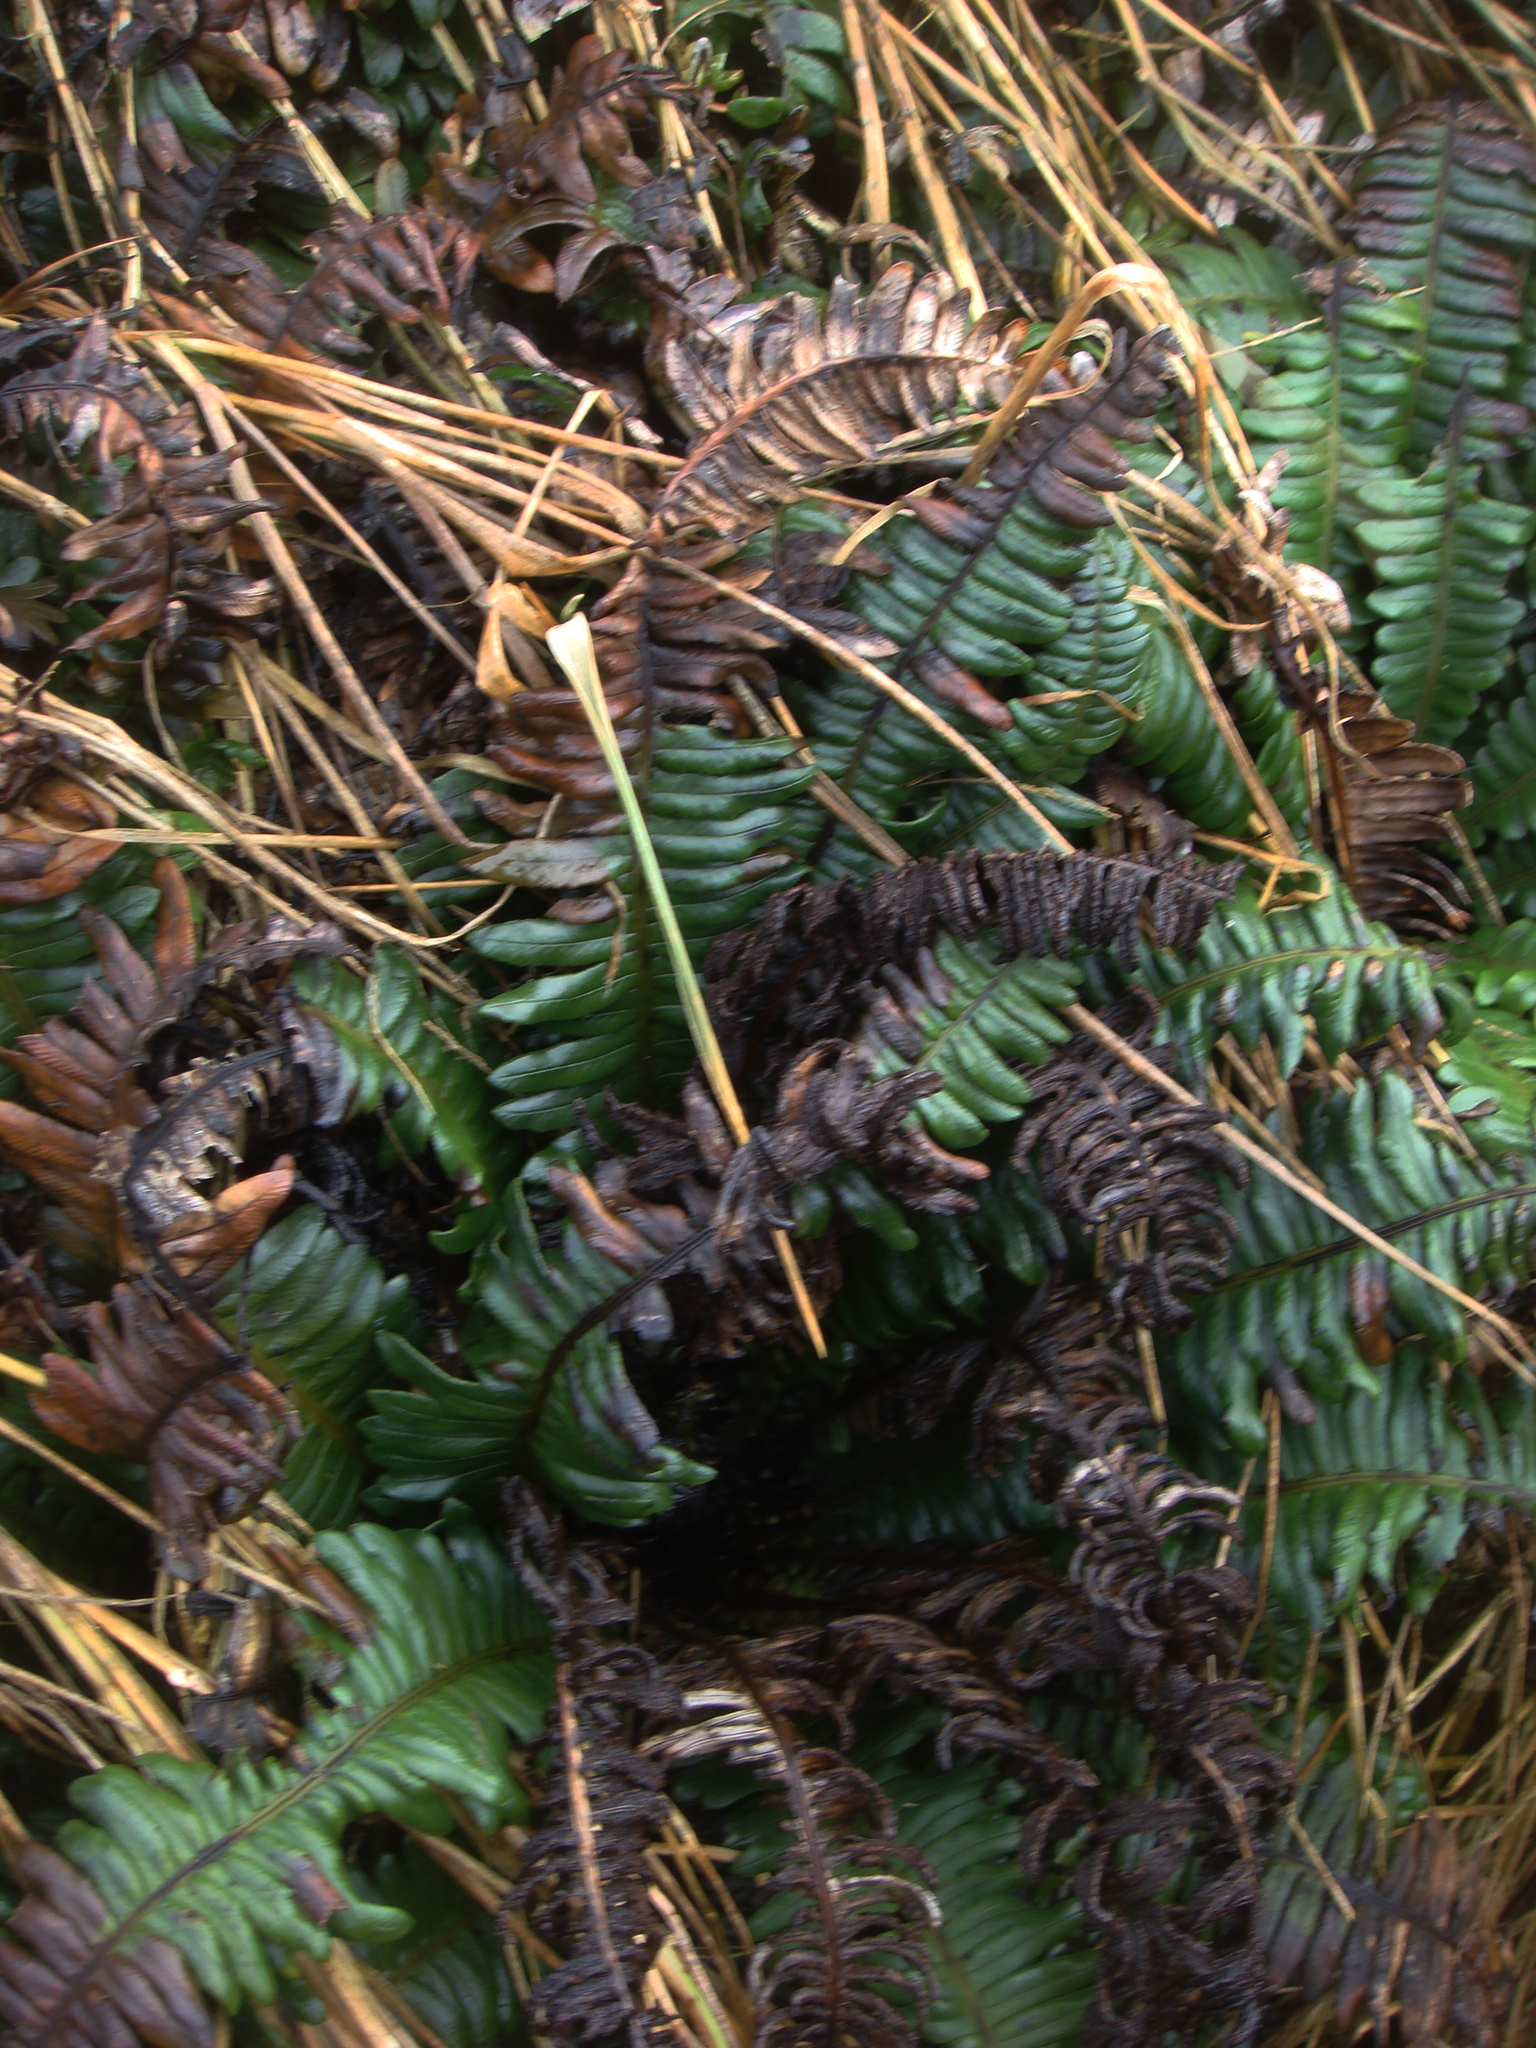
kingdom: Plantae
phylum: Tracheophyta
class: Polypodiopsida
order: Polypodiales
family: Blechnaceae
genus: Austroblechnum
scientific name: Austroblechnum durum
